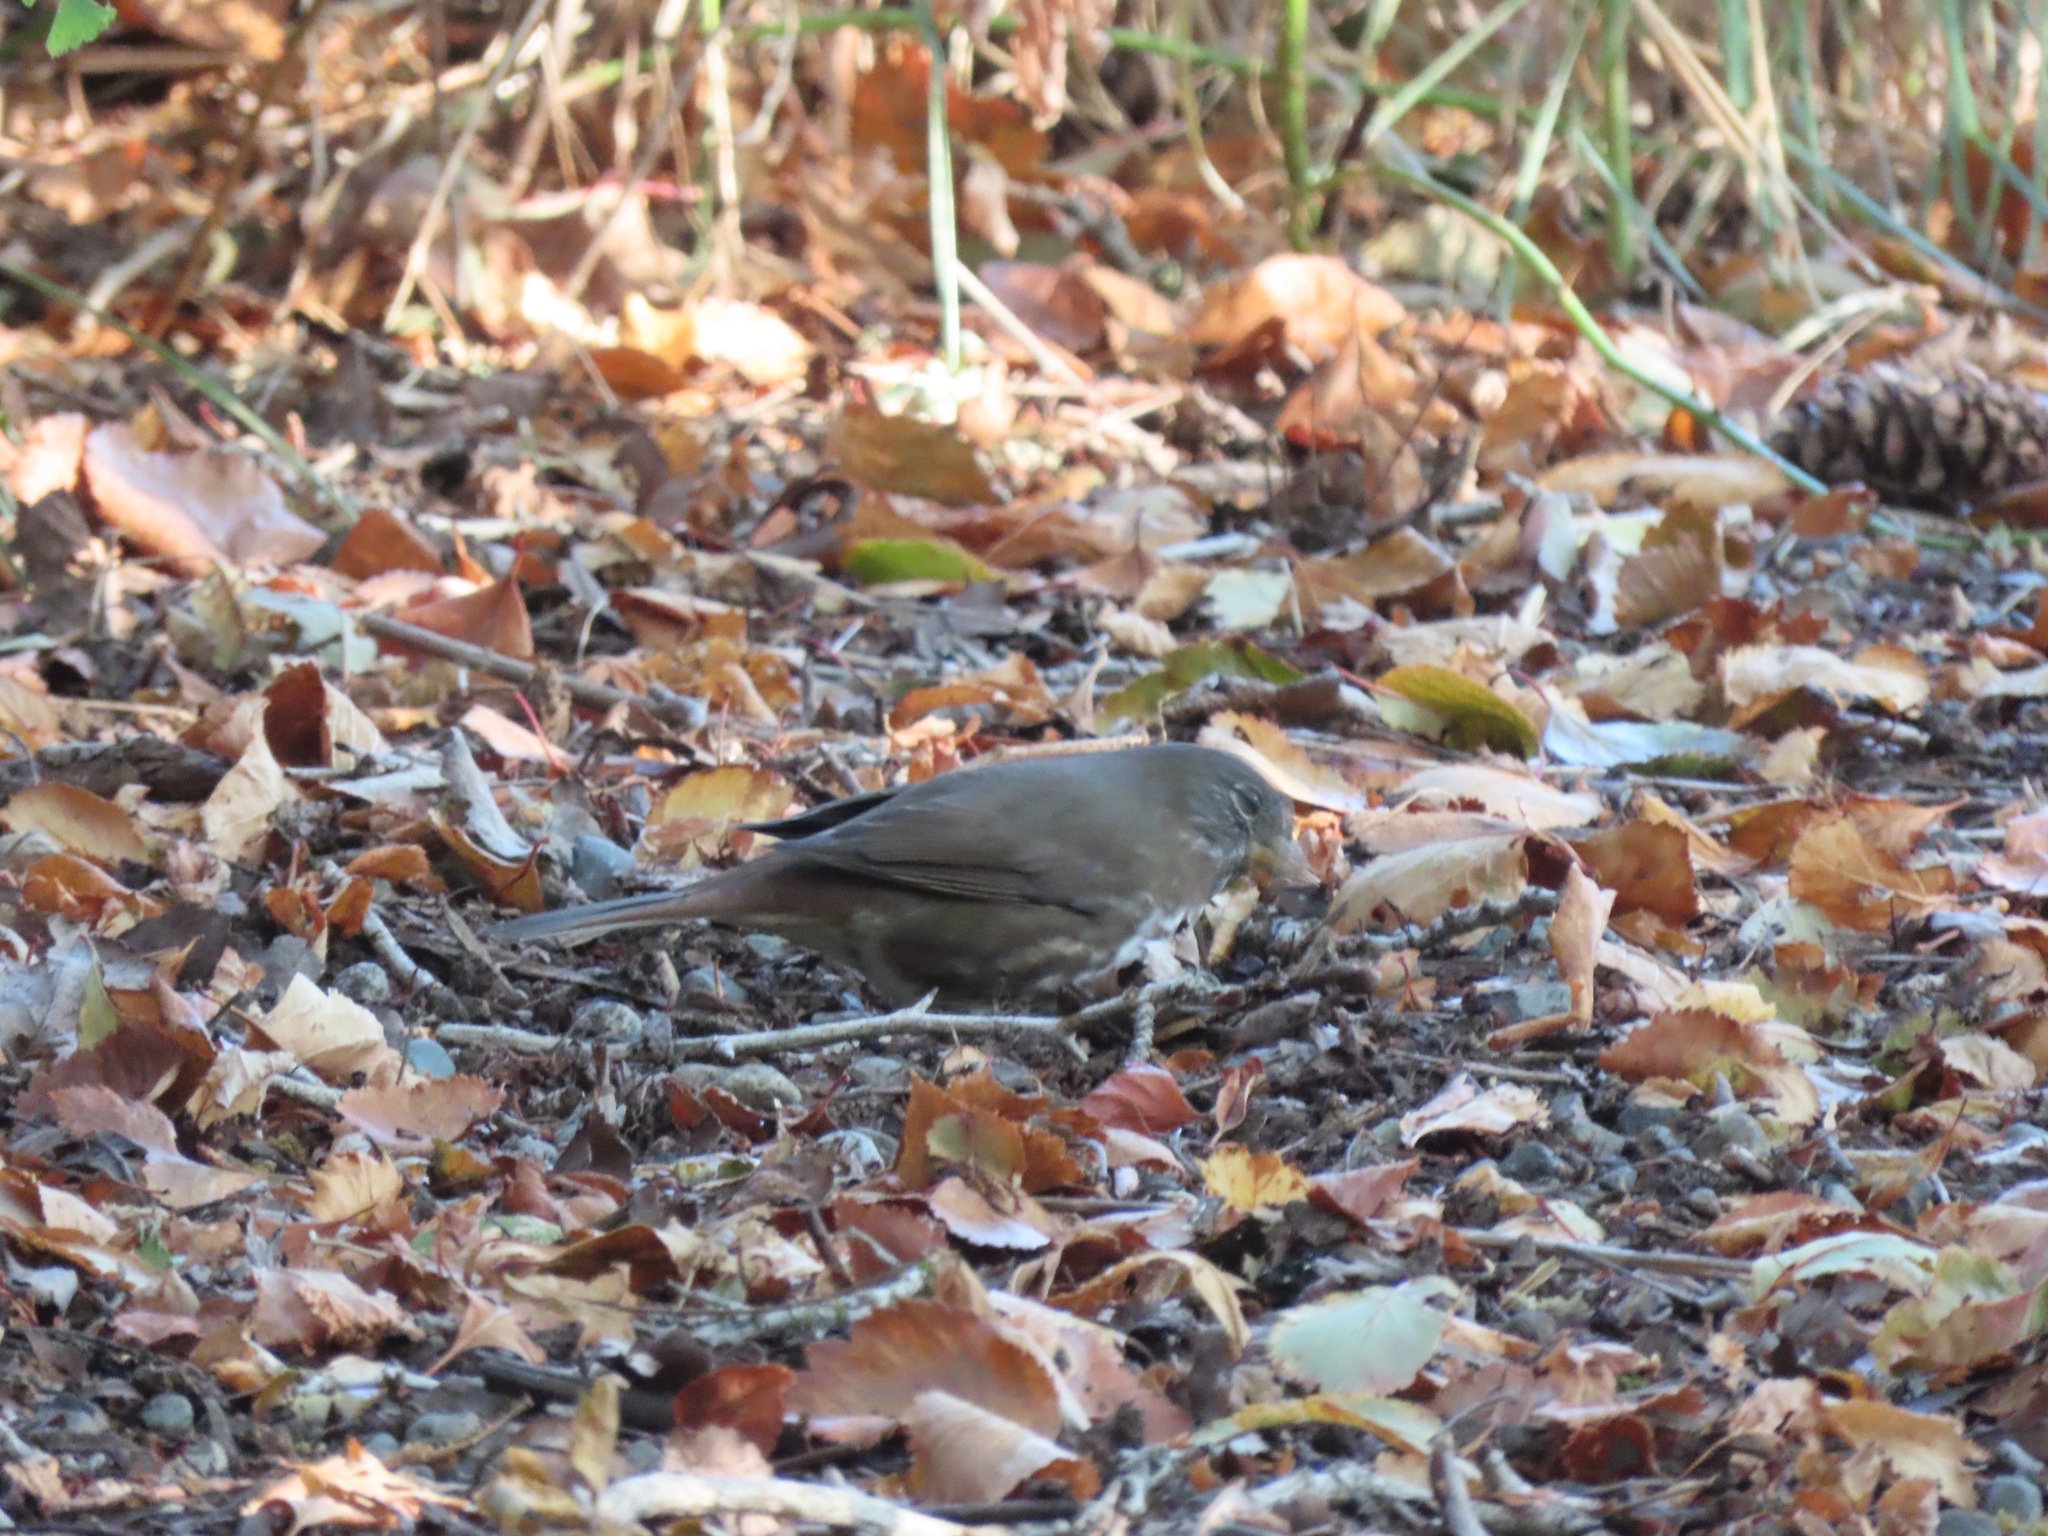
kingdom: Animalia
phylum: Chordata
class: Aves
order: Passeriformes
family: Passerellidae
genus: Passerella
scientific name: Passerella iliaca
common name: Fox sparrow
